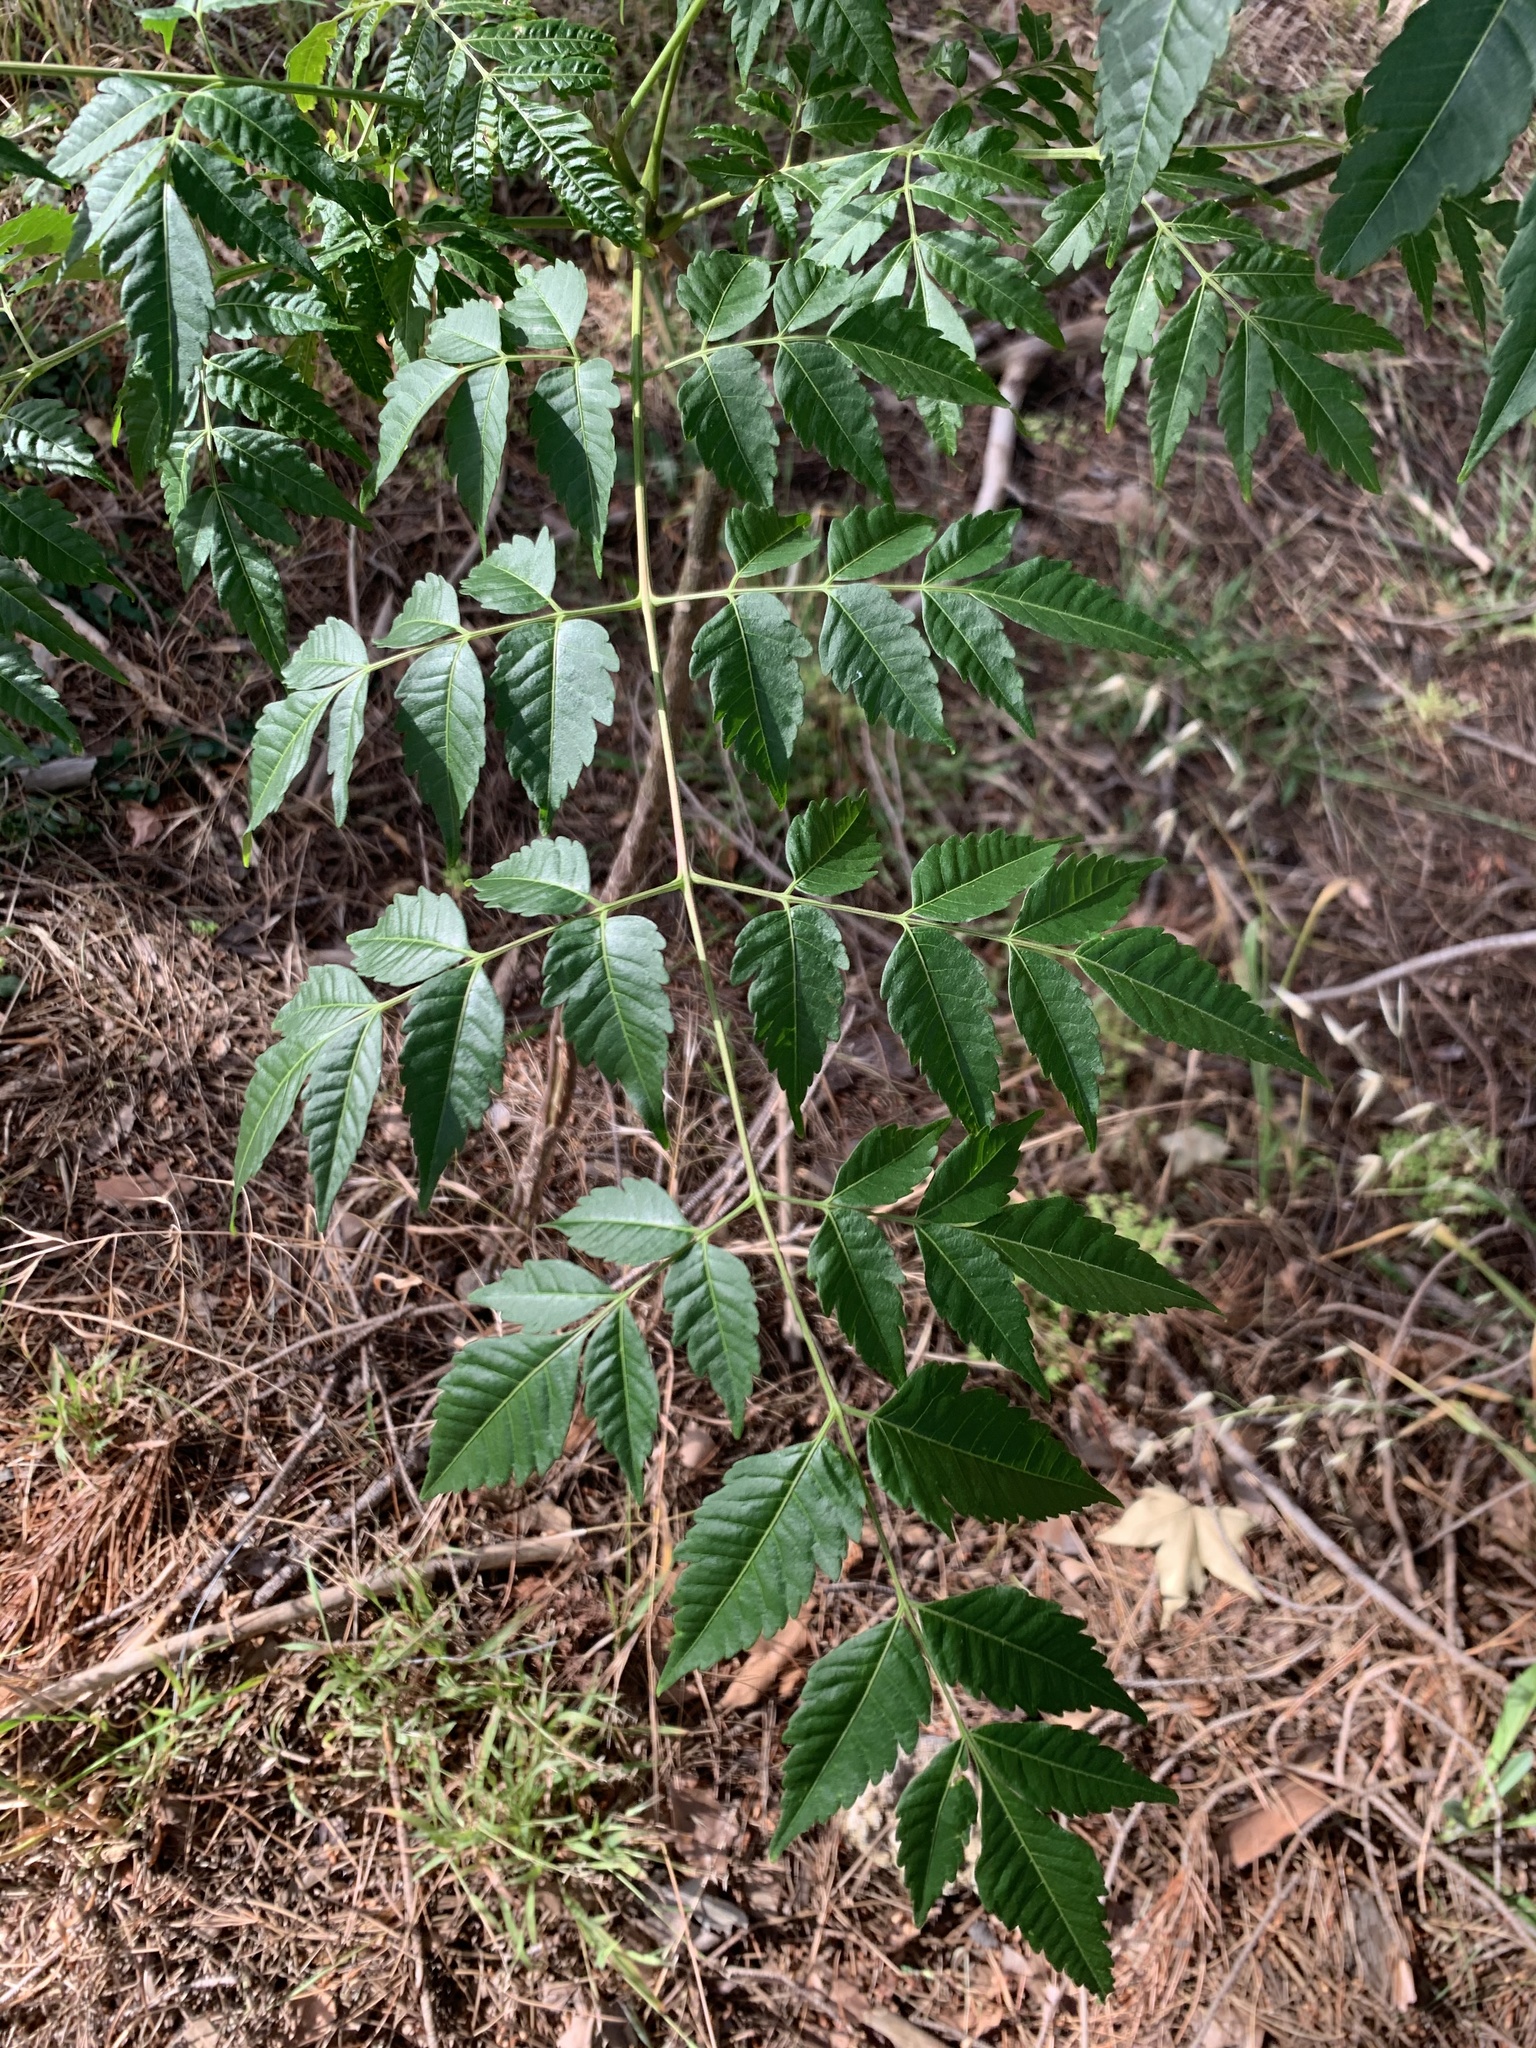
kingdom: Plantae
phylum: Tracheophyta
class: Magnoliopsida
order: Sapindales
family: Meliaceae
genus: Melia
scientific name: Melia azedarach
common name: Chinaberrytree
